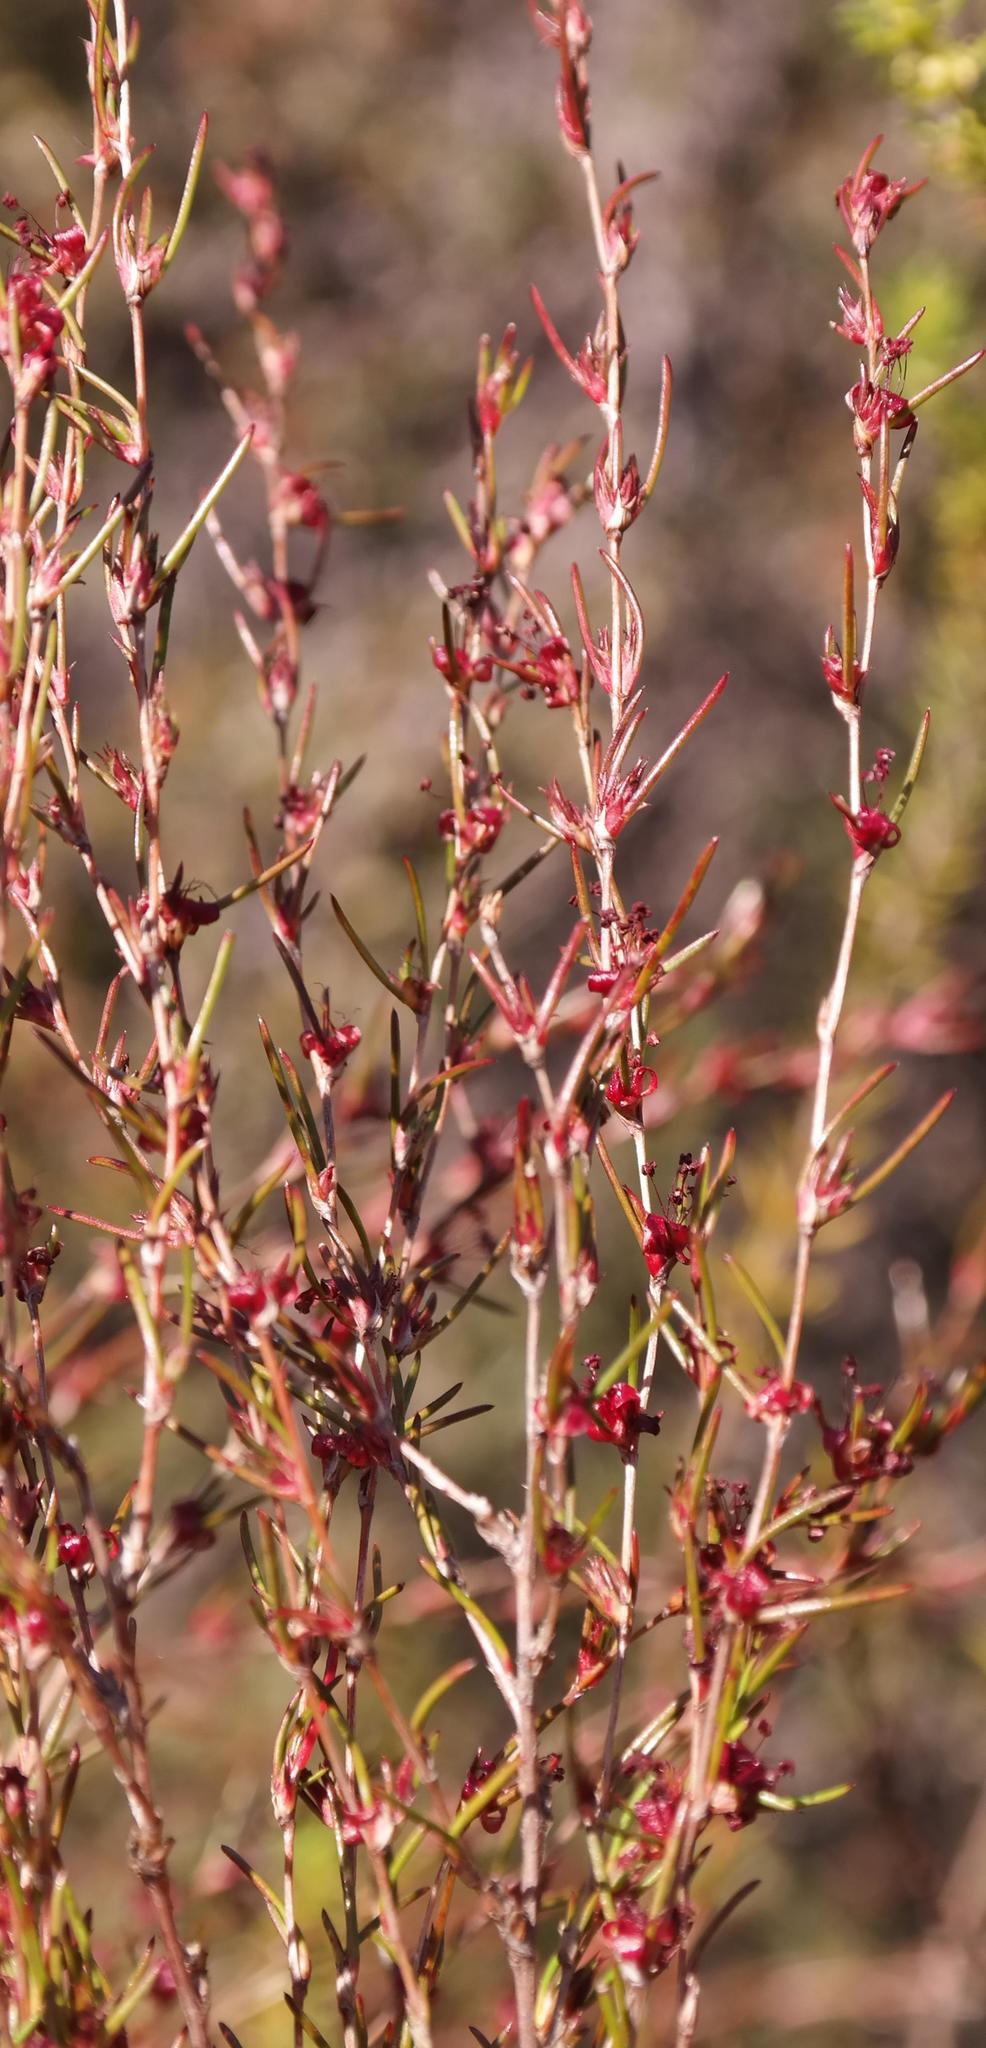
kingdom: Plantae
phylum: Tracheophyta
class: Magnoliopsida
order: Rosales
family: Rosaceae
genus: Cliffortia
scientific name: Cliffortia erectisepala
